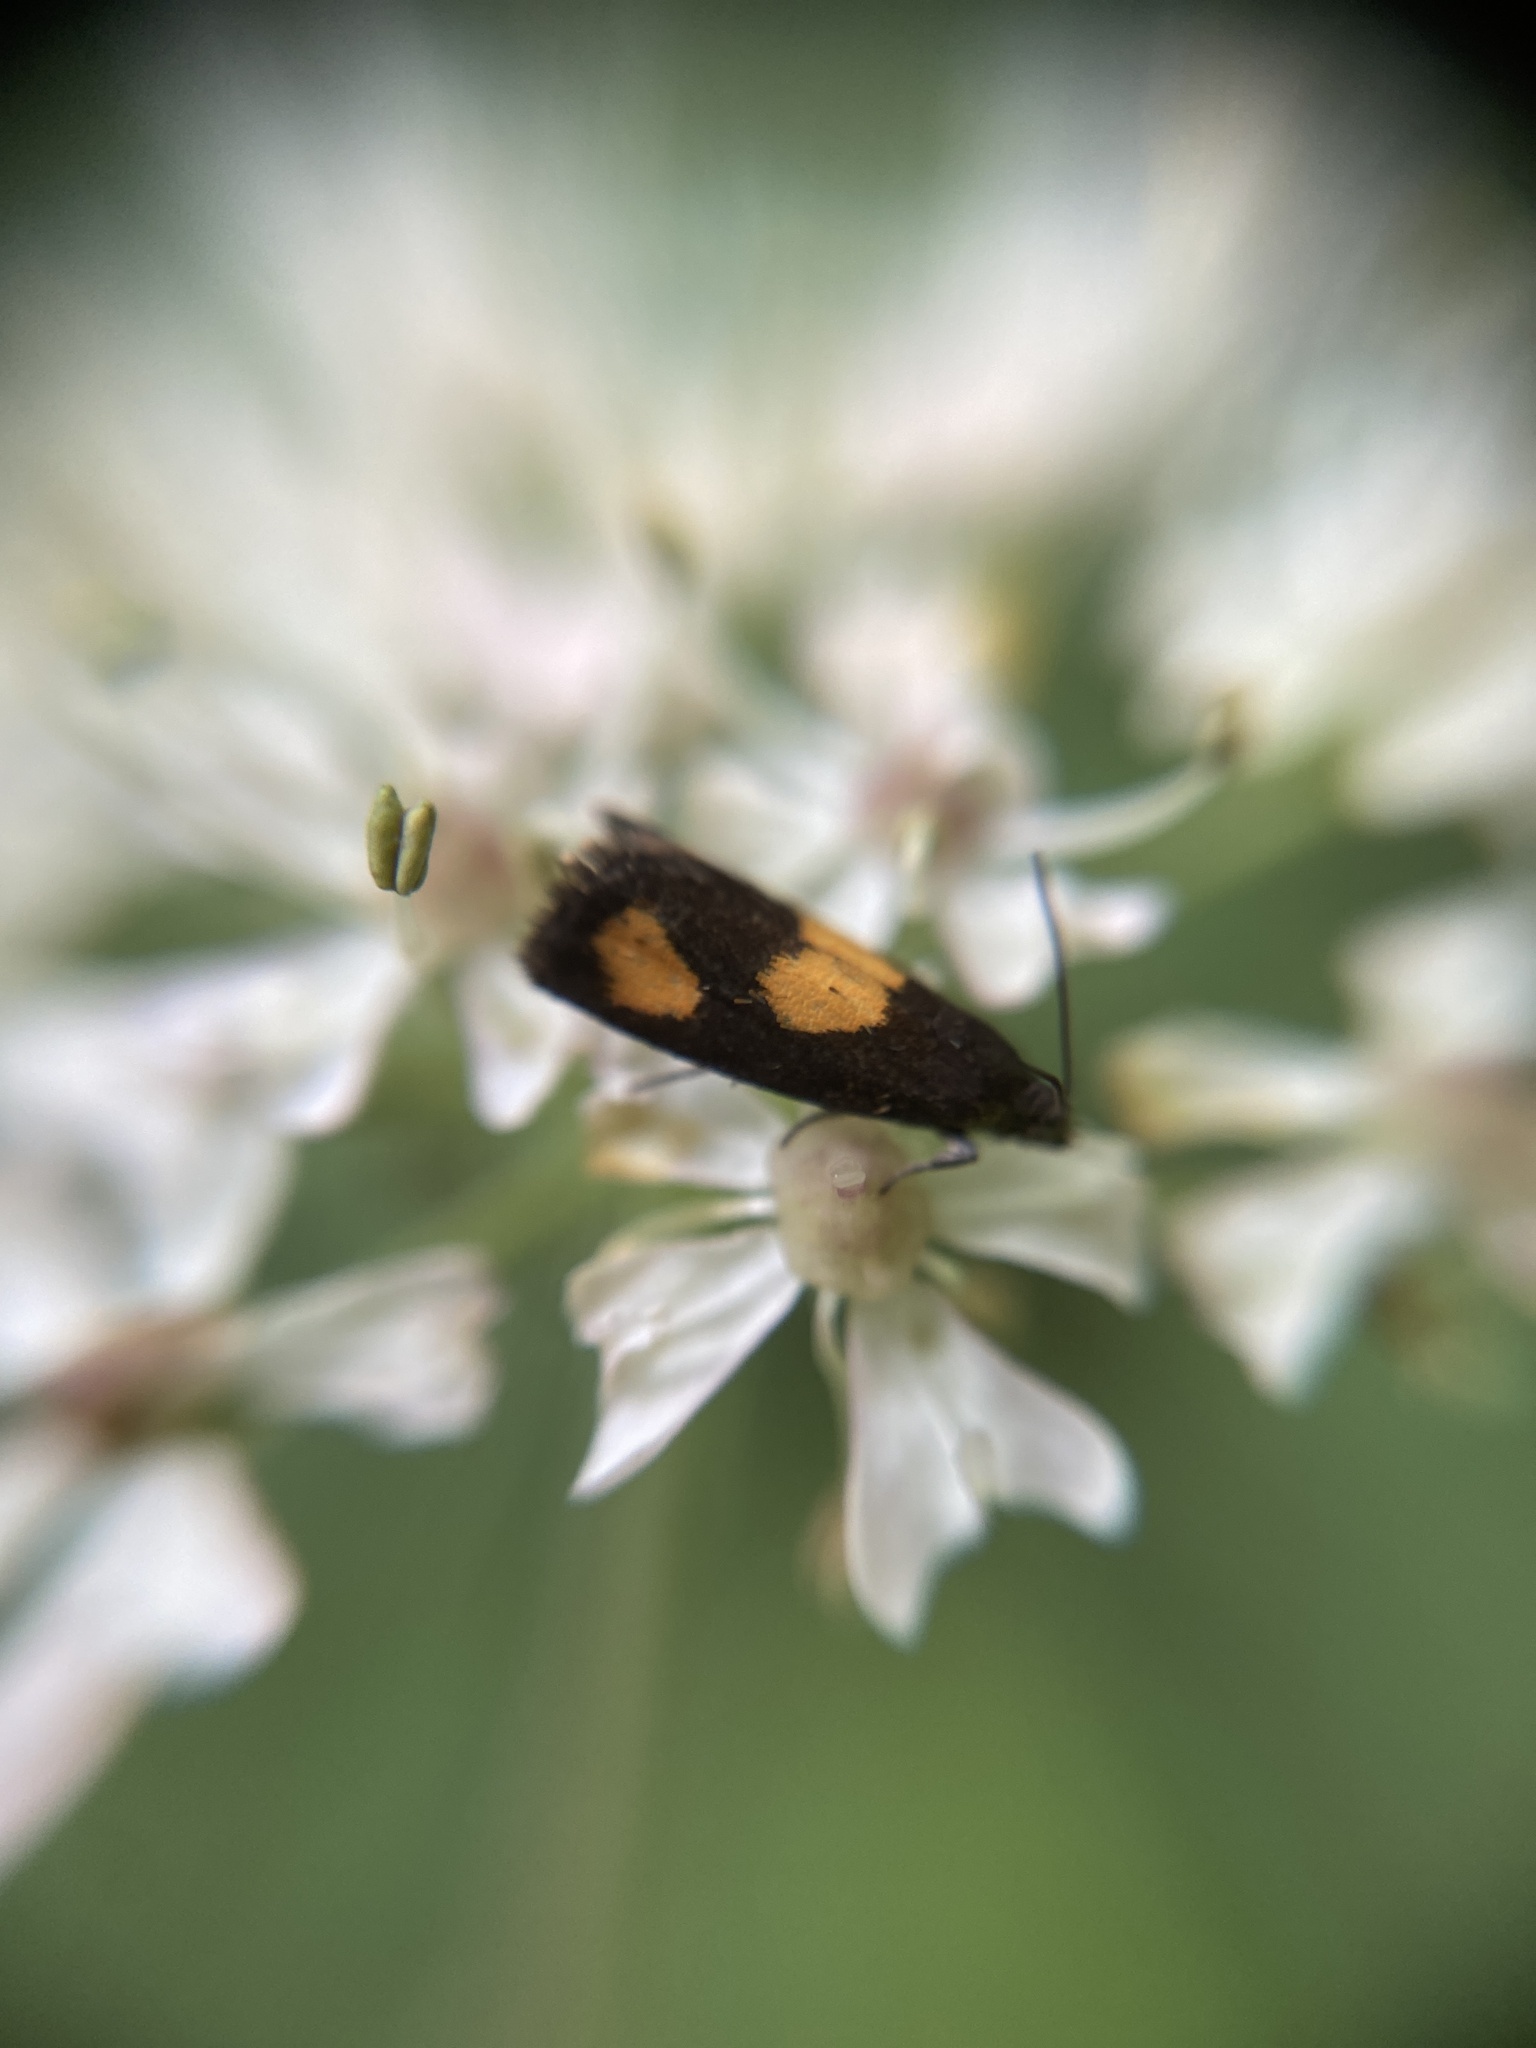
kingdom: Animalia
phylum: Arthropoda
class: Insecta
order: Lepidoptera
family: Tortricidae
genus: Pammene
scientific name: Pammene aurana
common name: Orange-spot piercer
